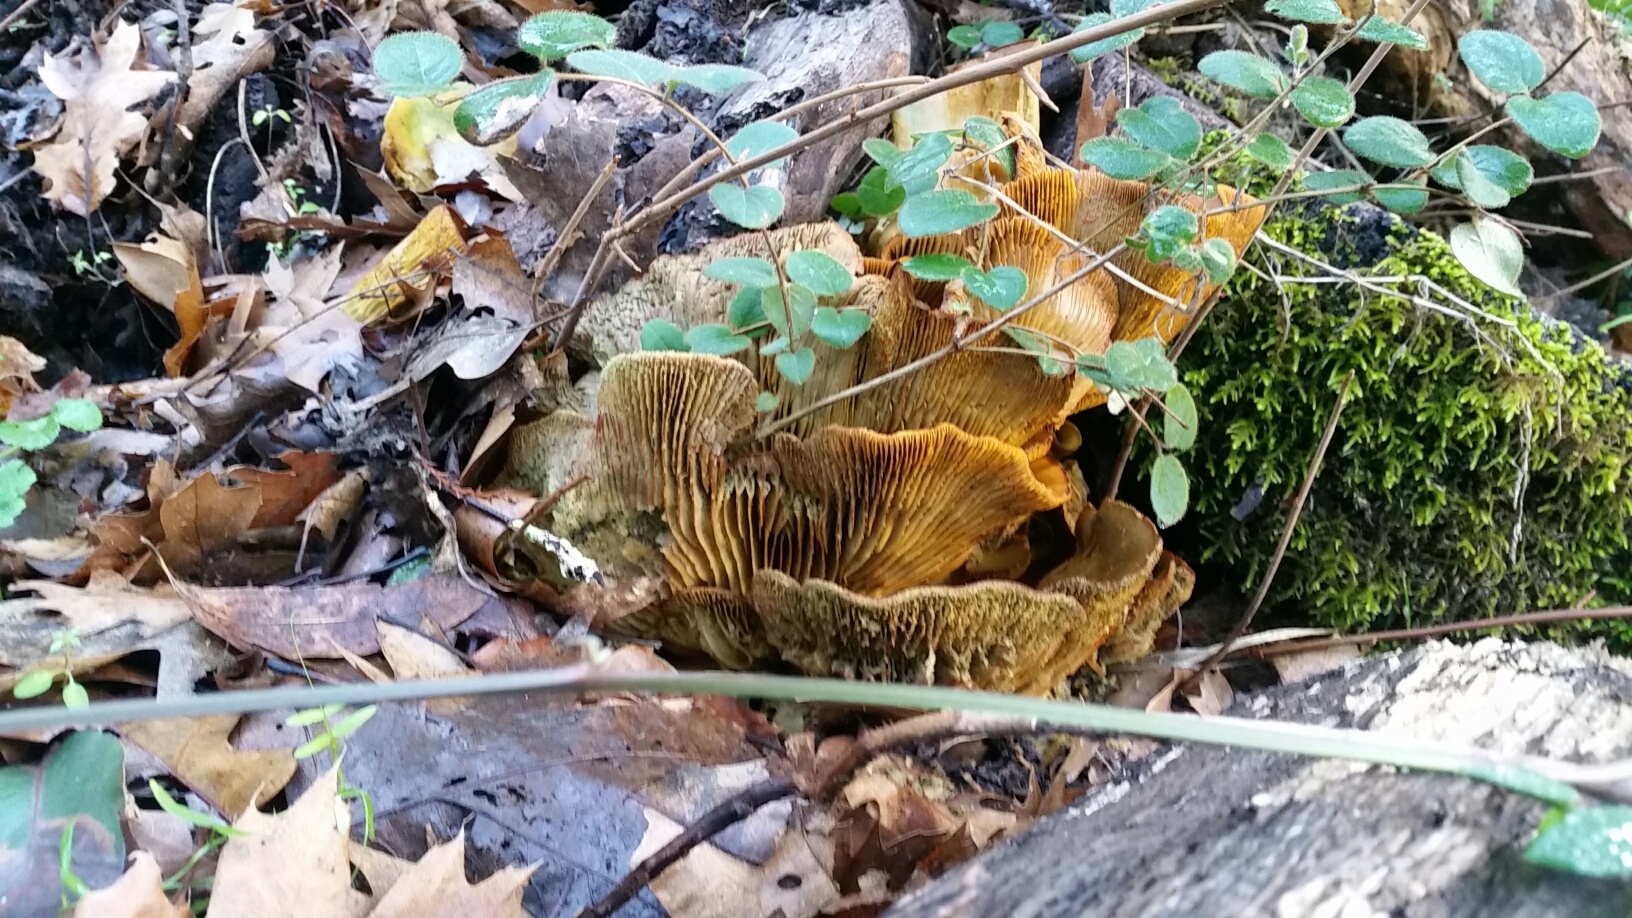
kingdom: Fungi
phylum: Basidiomycota
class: Agaricomycetes
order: Agaricales
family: Omphalotaceae
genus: Omphalotus
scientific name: Omphalotus olivascens
